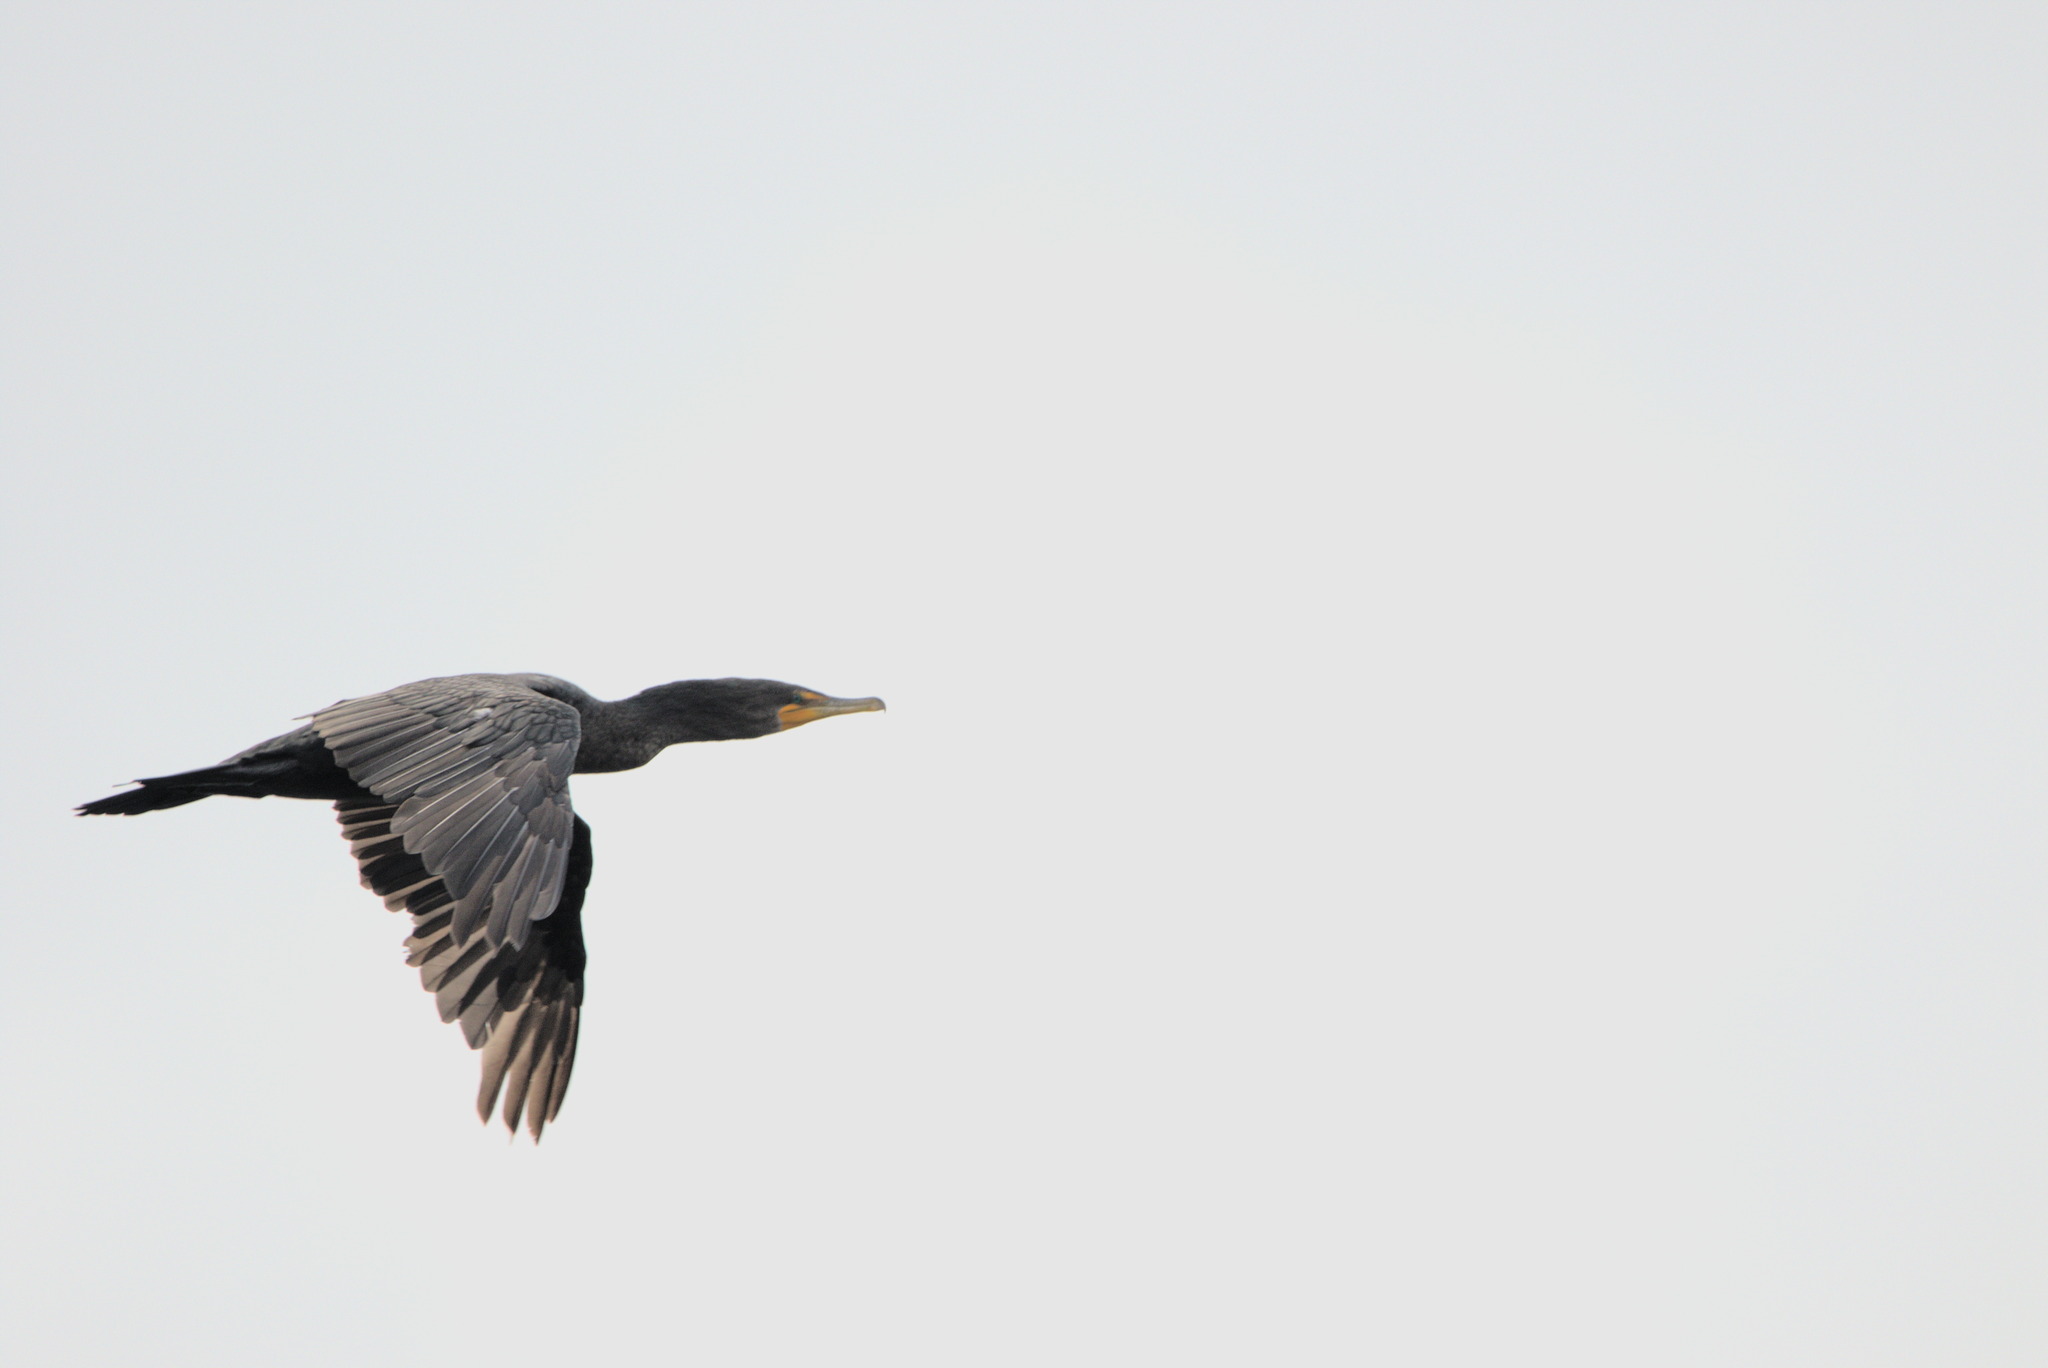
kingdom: Animalia
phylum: Chordata
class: Aves
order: Suliformes
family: Phalacrocoracidae
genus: Phalacrocorax
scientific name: Phalacrocorax auritus
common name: Double-crested cormorant
